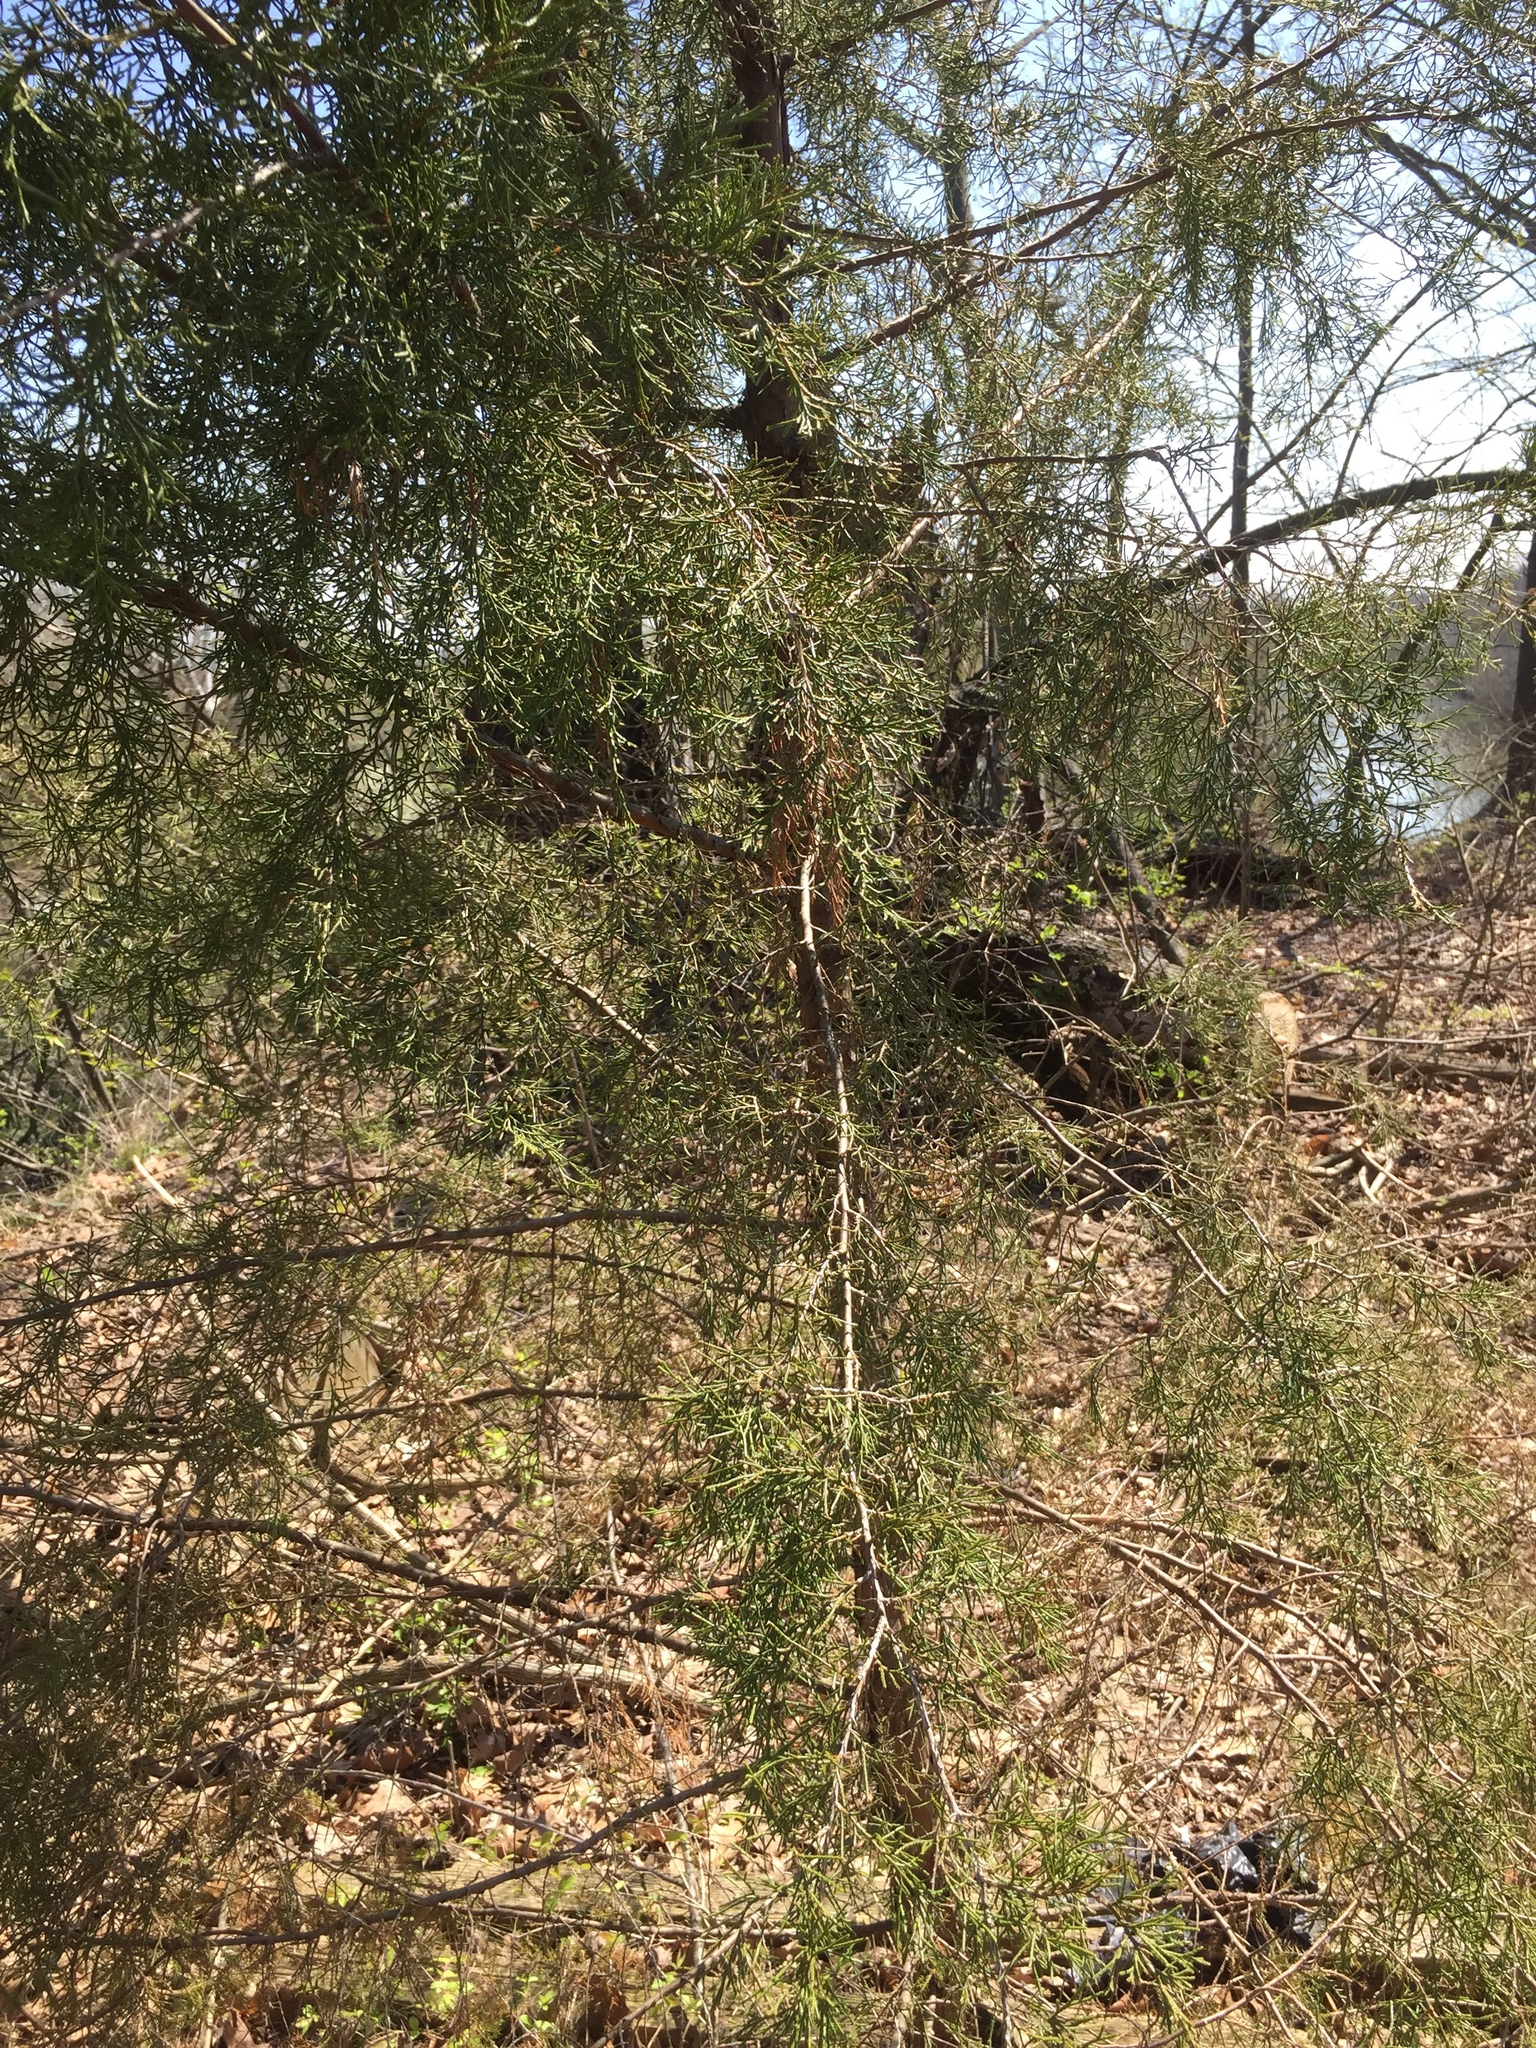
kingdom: Plantae
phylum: Tracheophyta
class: Pinopsida
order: Pinales
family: Cupressaceae
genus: Juniperus
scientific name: Juniperus virginiana
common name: Red juniper
